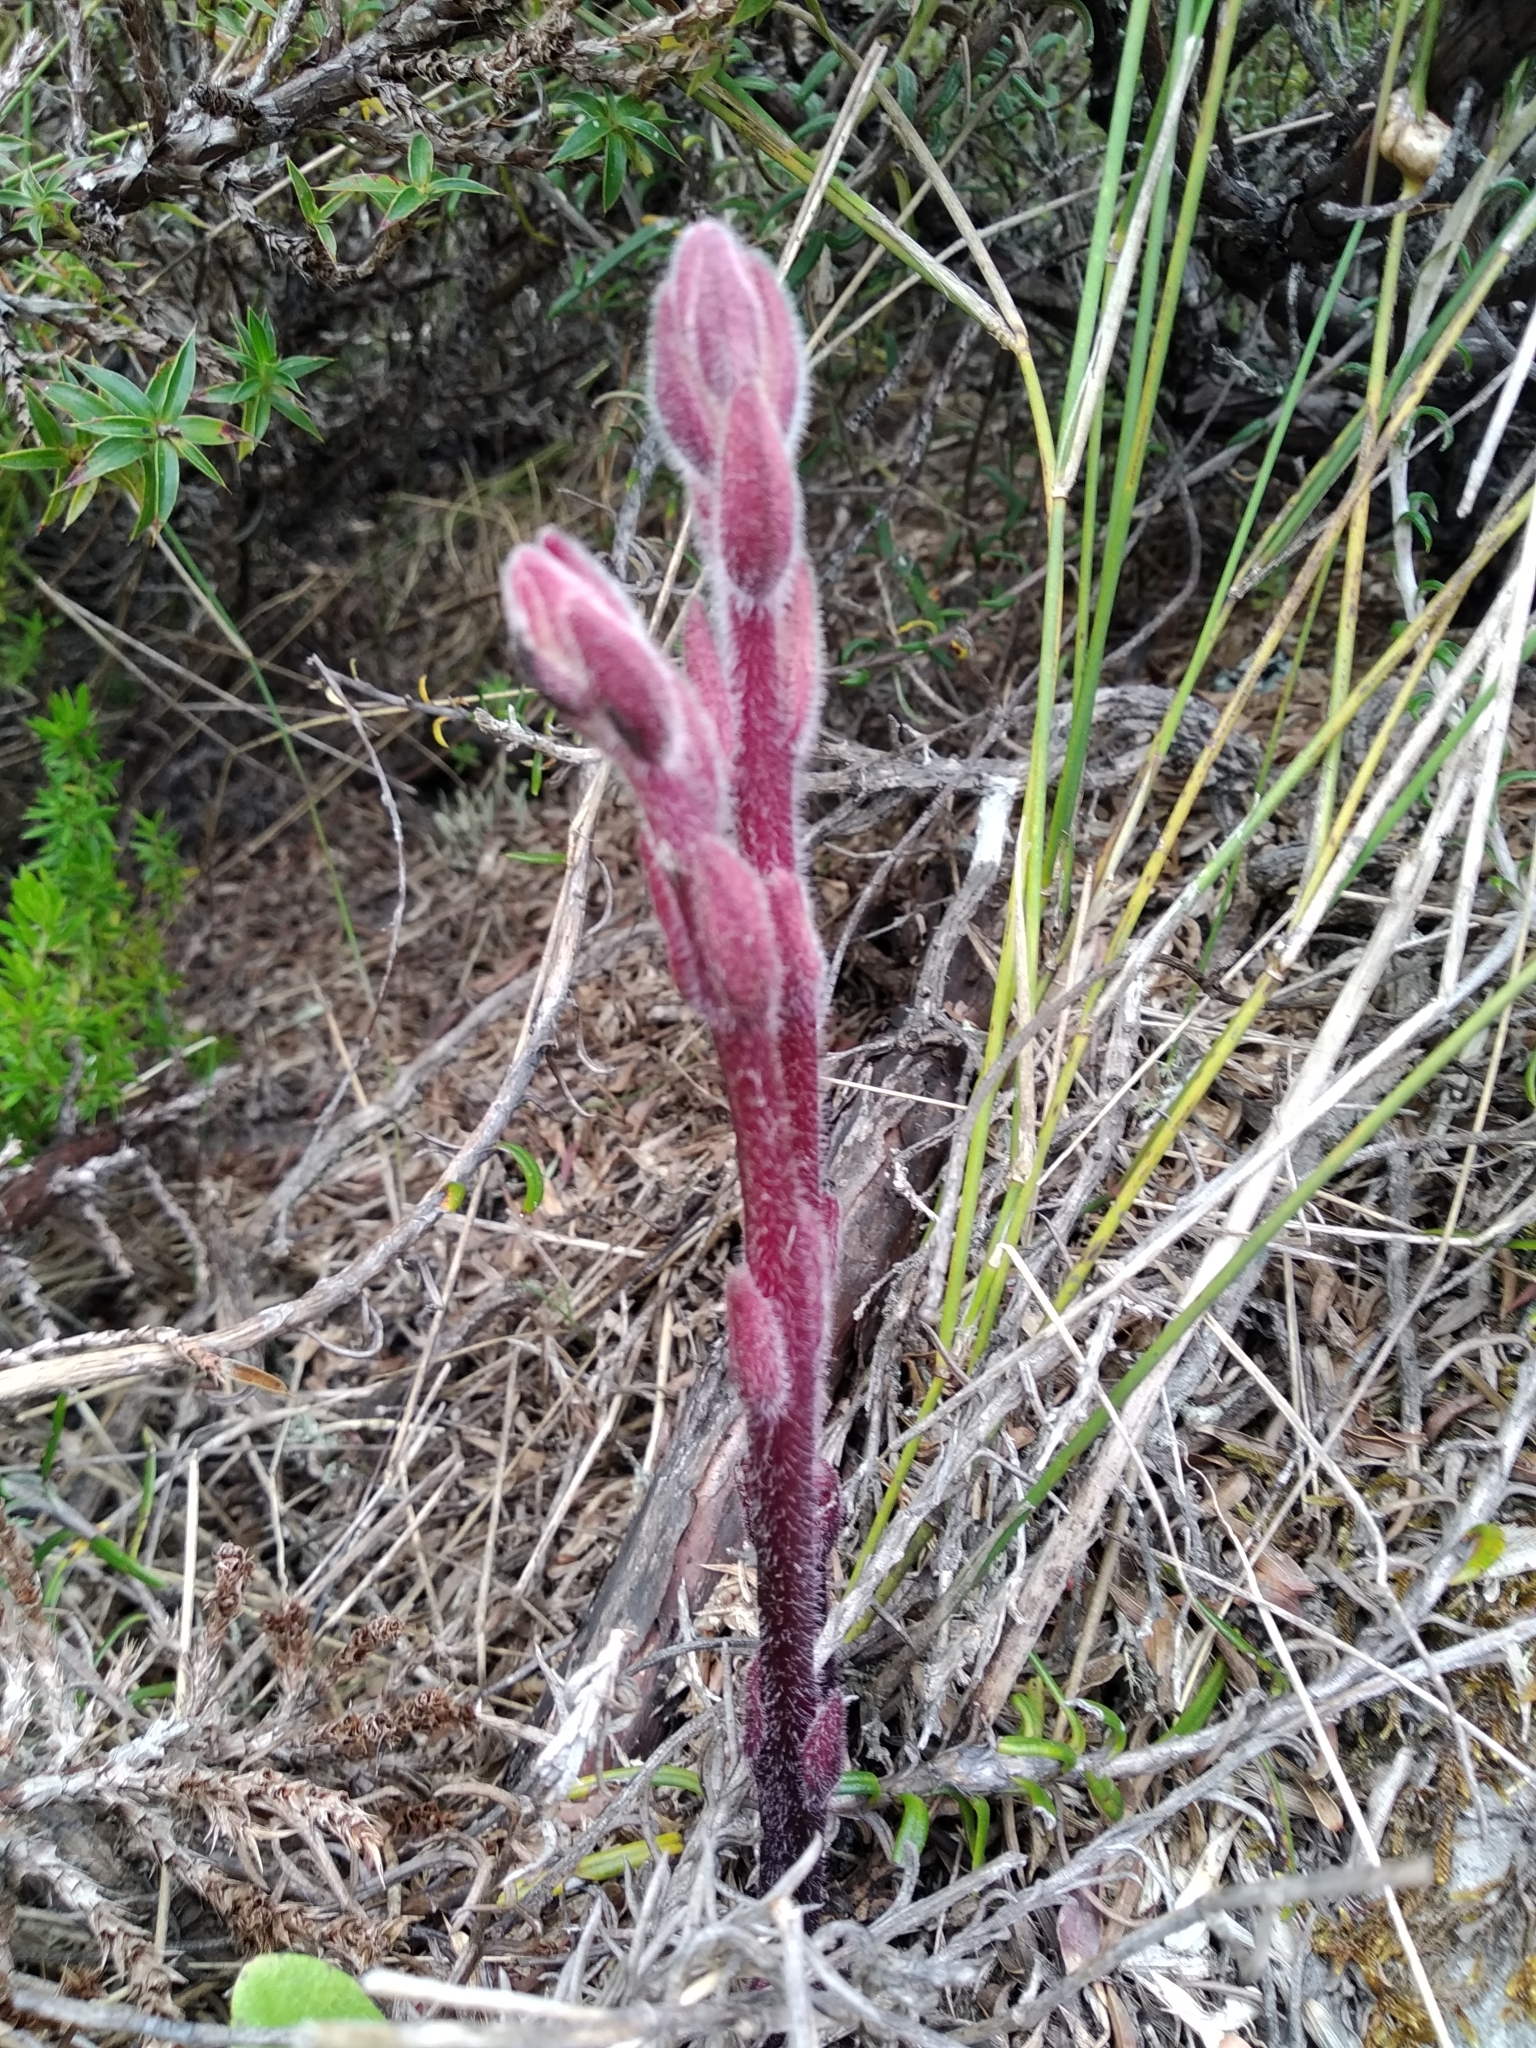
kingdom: Plantae
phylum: Tracheophyta
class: Magnoliopsida
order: Lamiales
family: Orobanchaceae
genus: Harveya
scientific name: Harveya pauciflora
